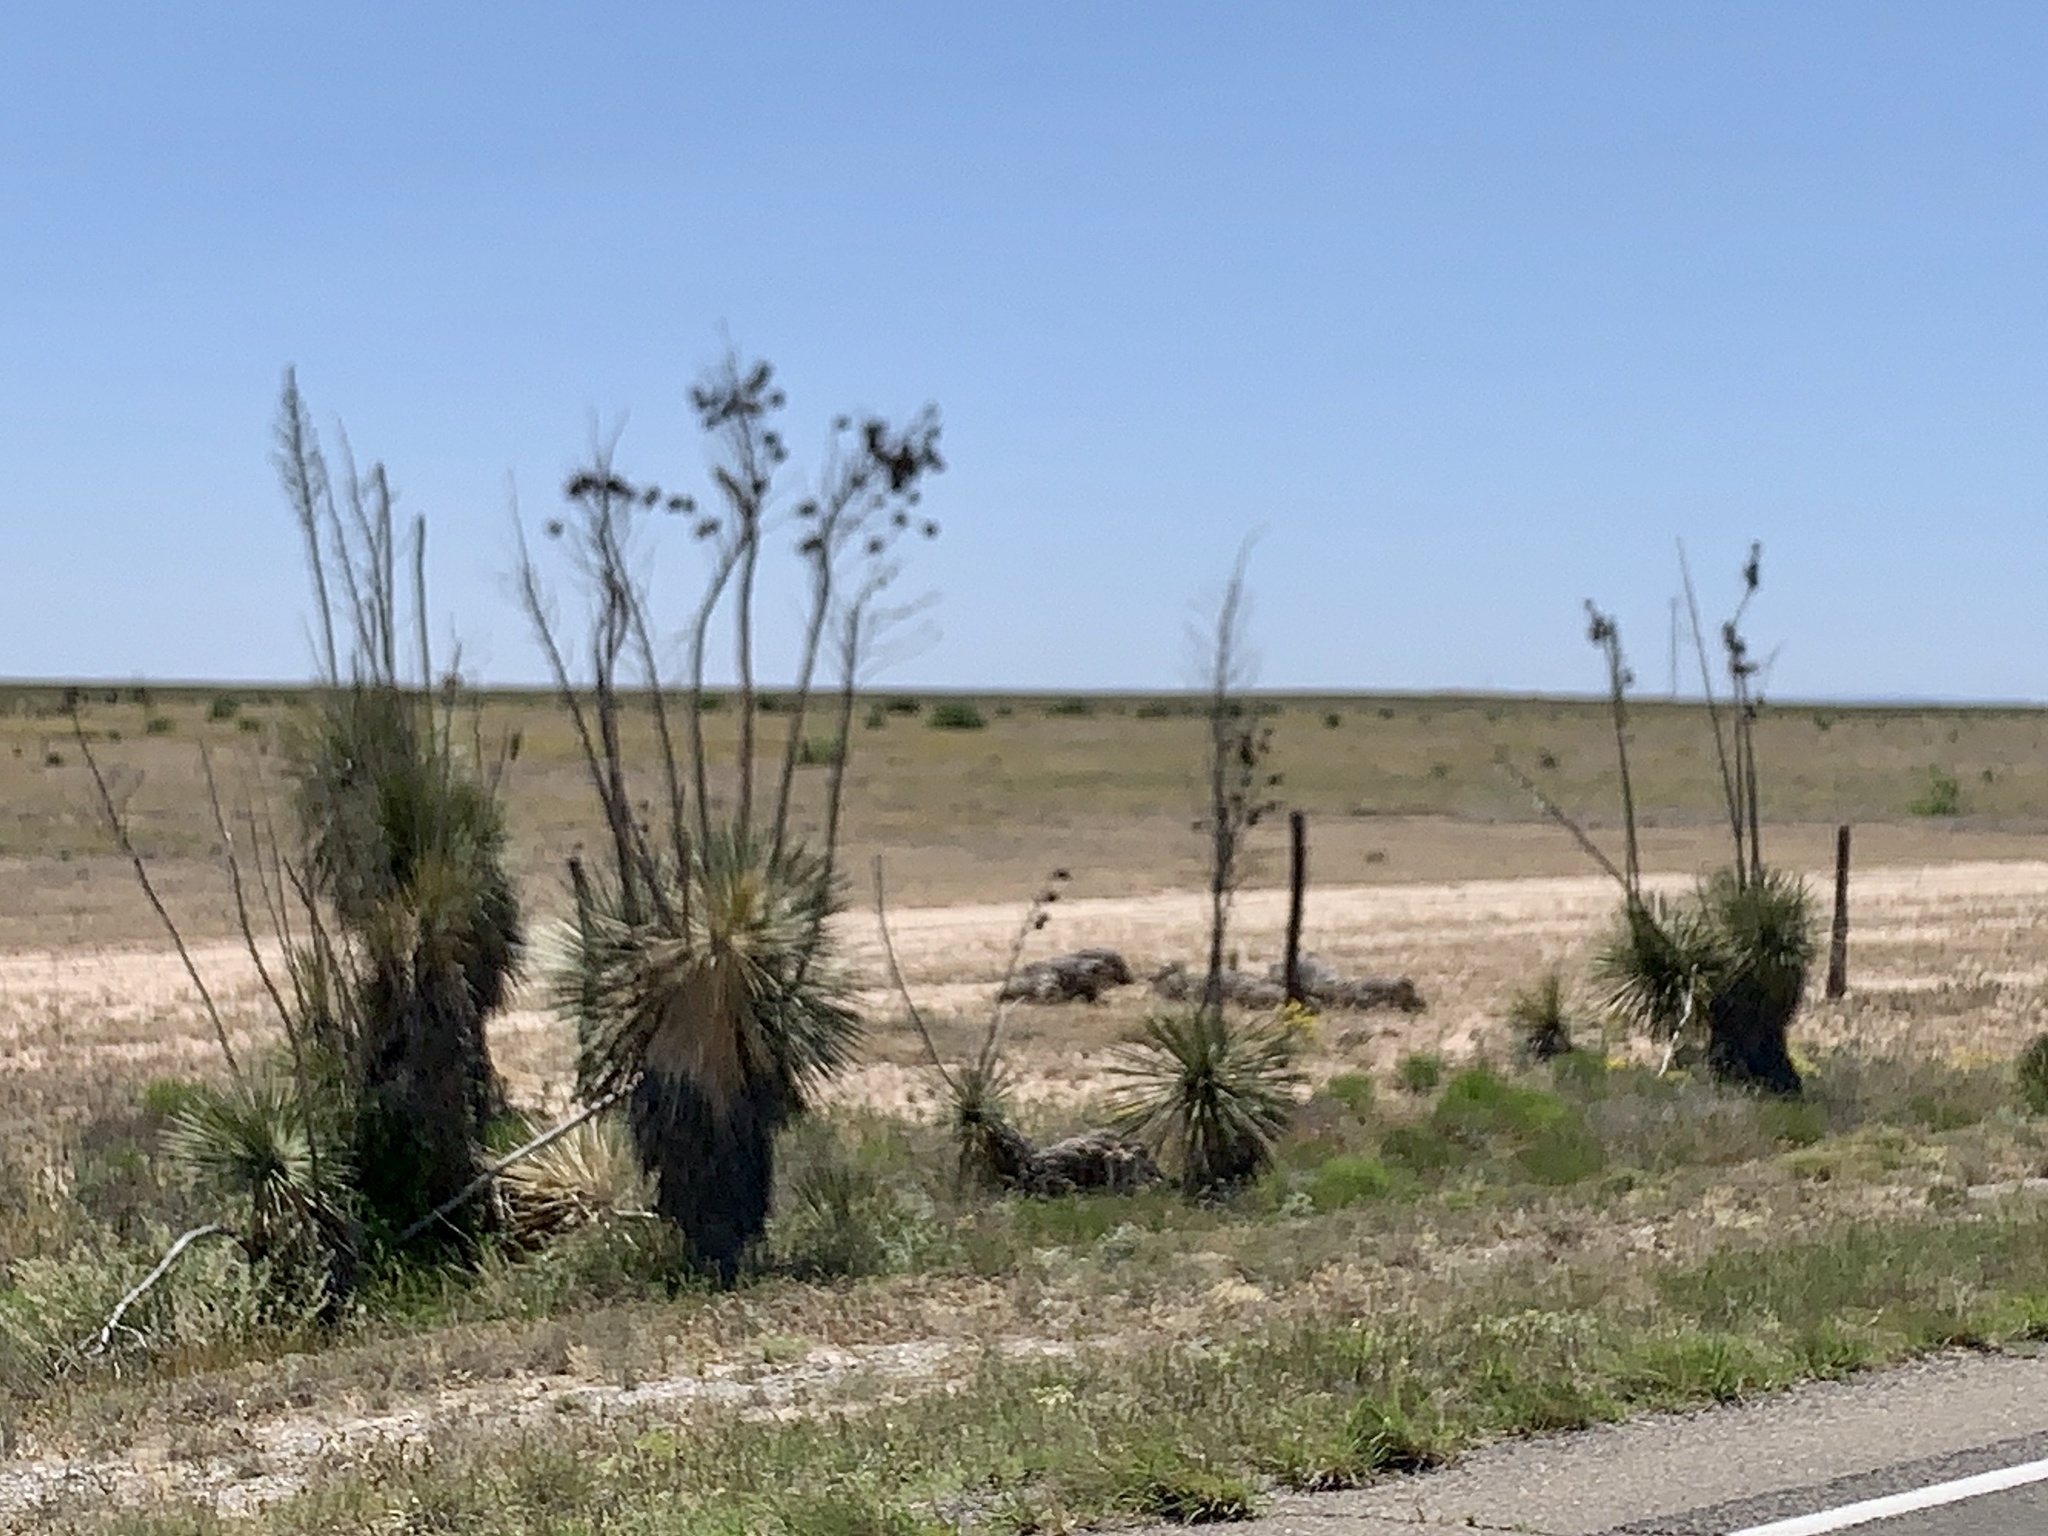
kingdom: Plantae
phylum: Tracheophyta
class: Liliopsida
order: Asparagales
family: Asparagaceae
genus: Yucca
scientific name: Yucca elata
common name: Palmella
